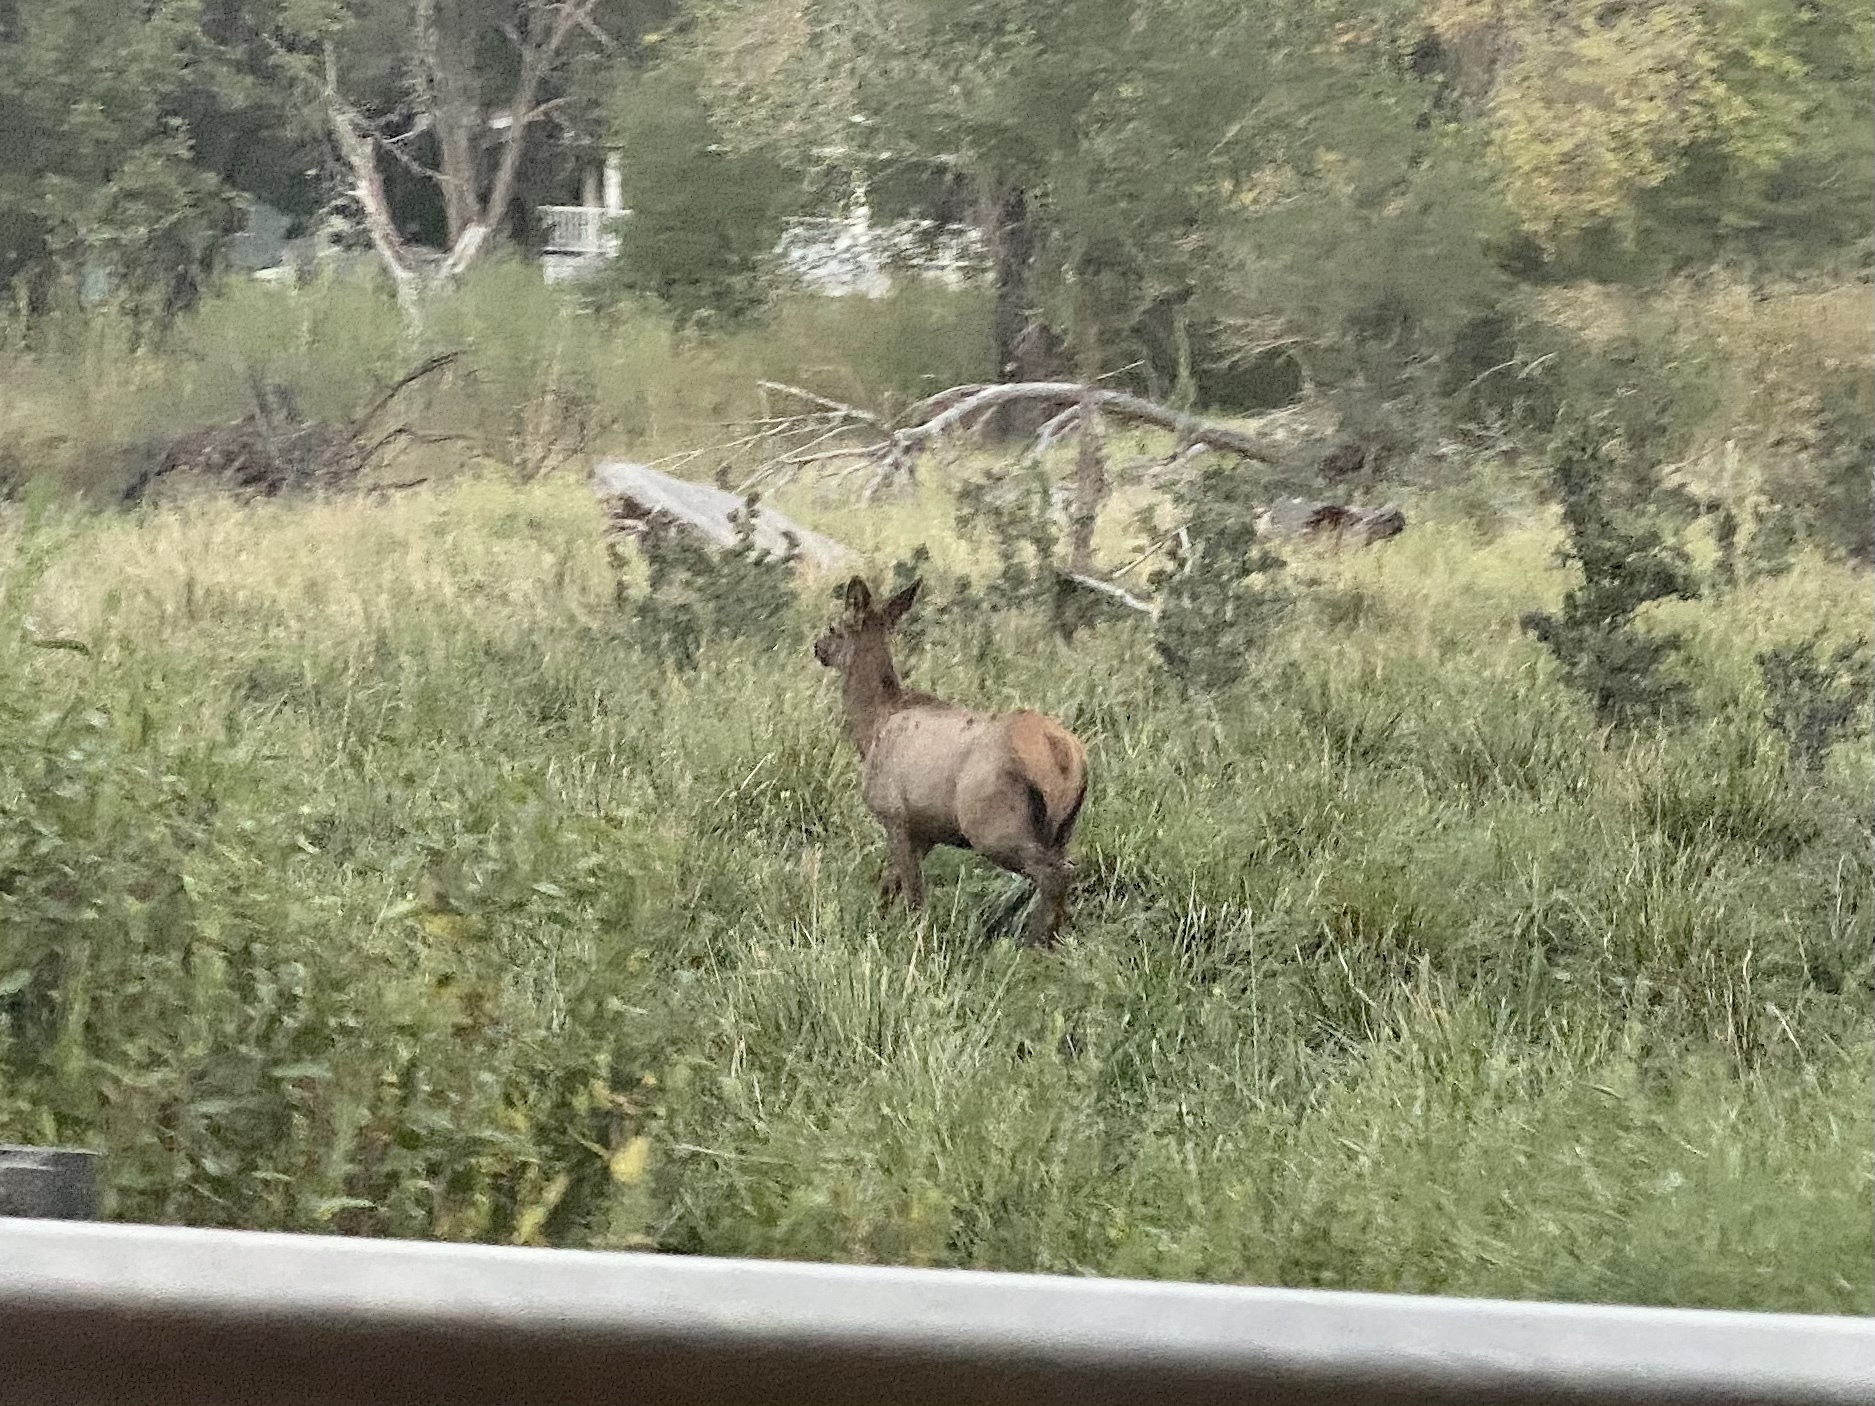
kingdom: Animalia
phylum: Chordata
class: Mammalia
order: Artiodactyla
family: Cervidae
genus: Cervus
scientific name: Cervus elaphus
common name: Red deer
